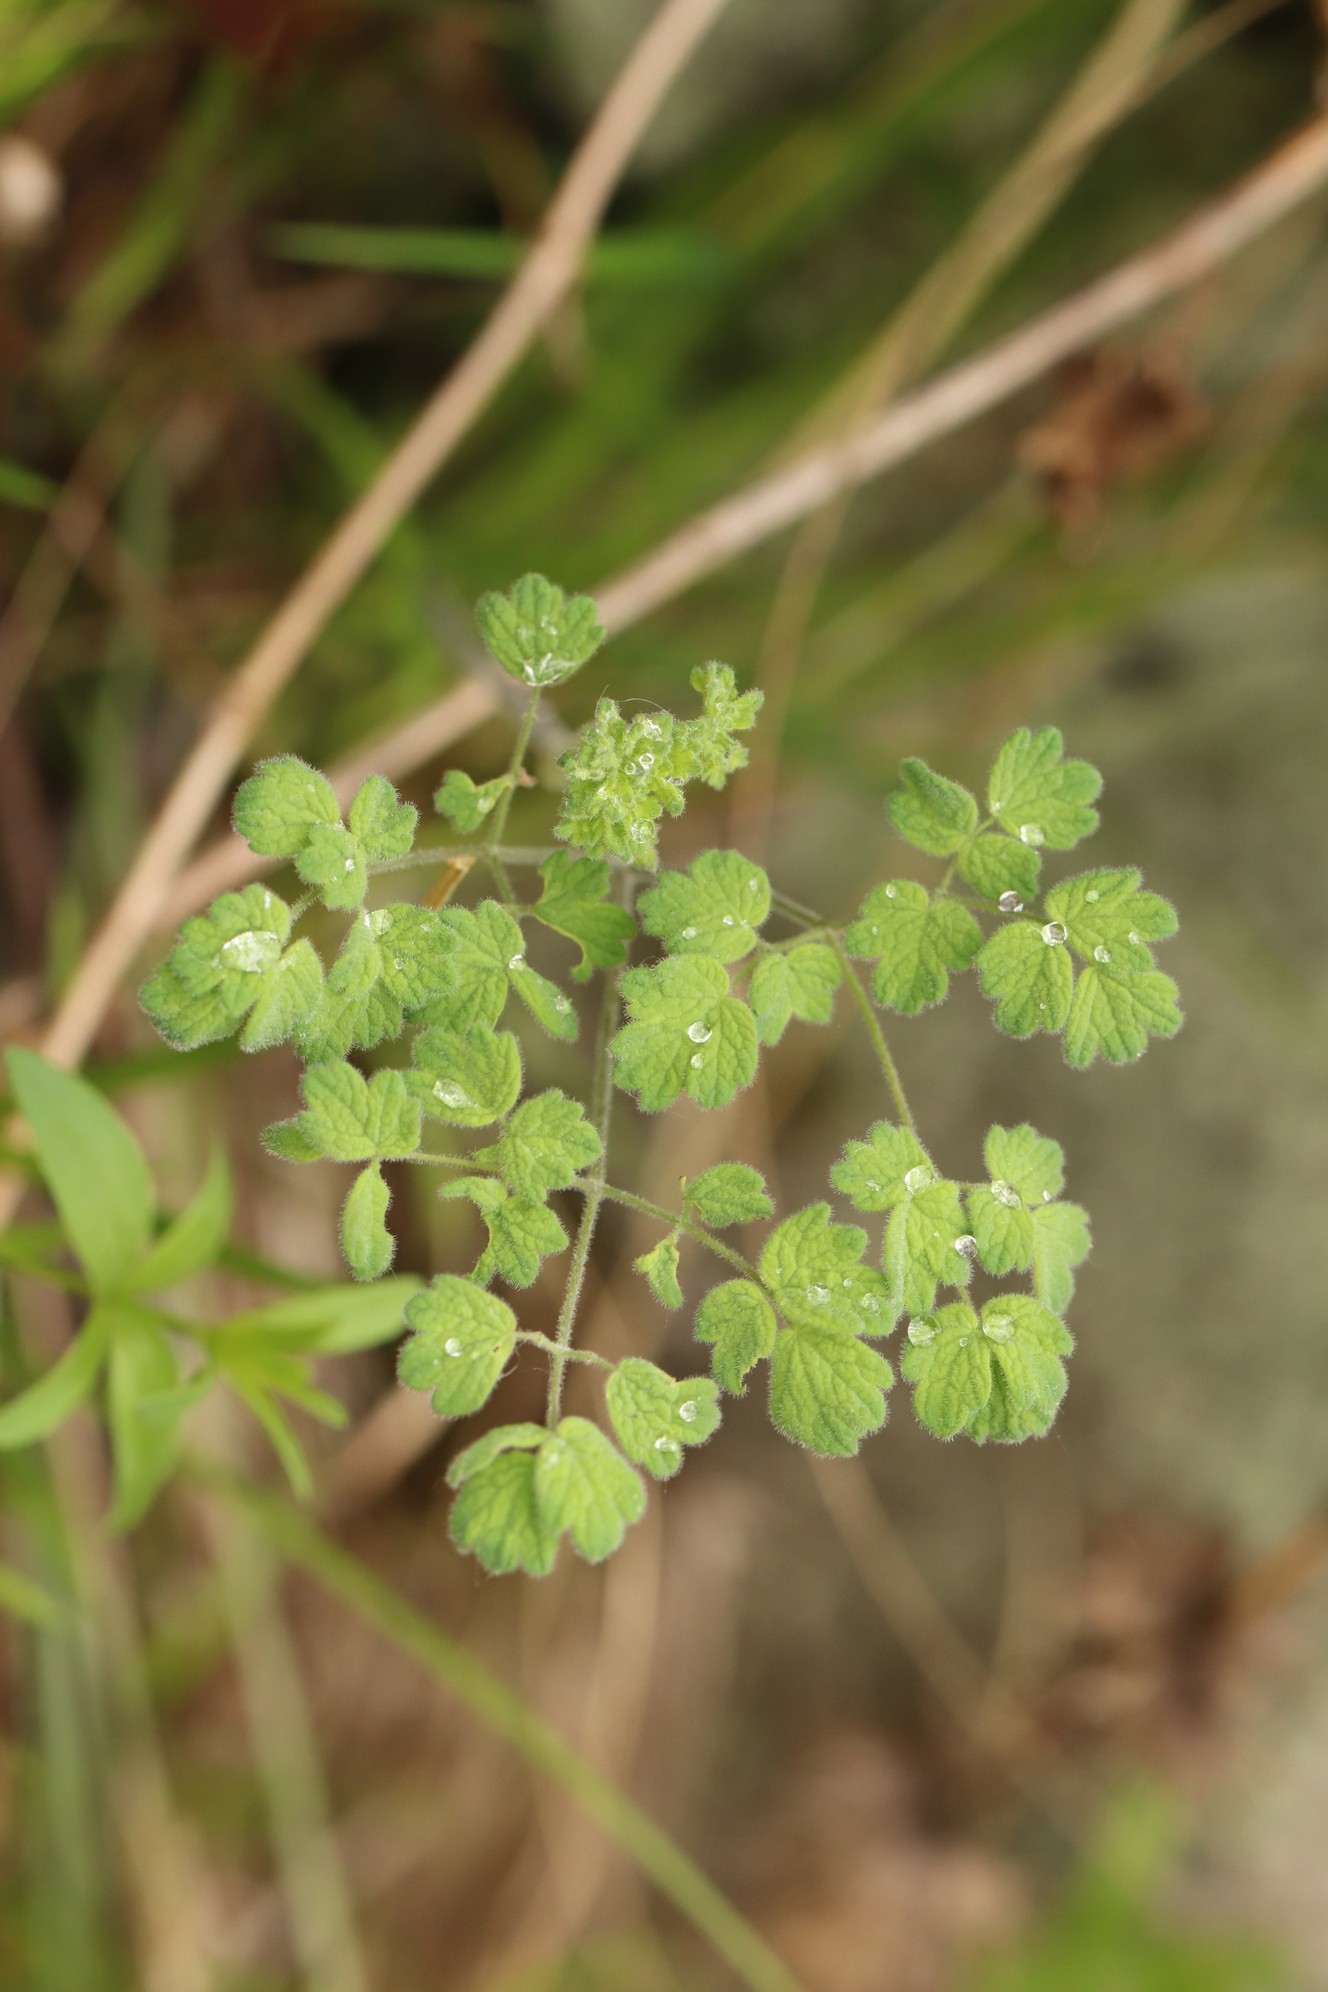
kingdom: Plantae
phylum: Tracheophyta
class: Magnoliopsida
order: Ranunculales
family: Ranunculaceae
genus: Thalictrum
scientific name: Thalictrum foetidum
